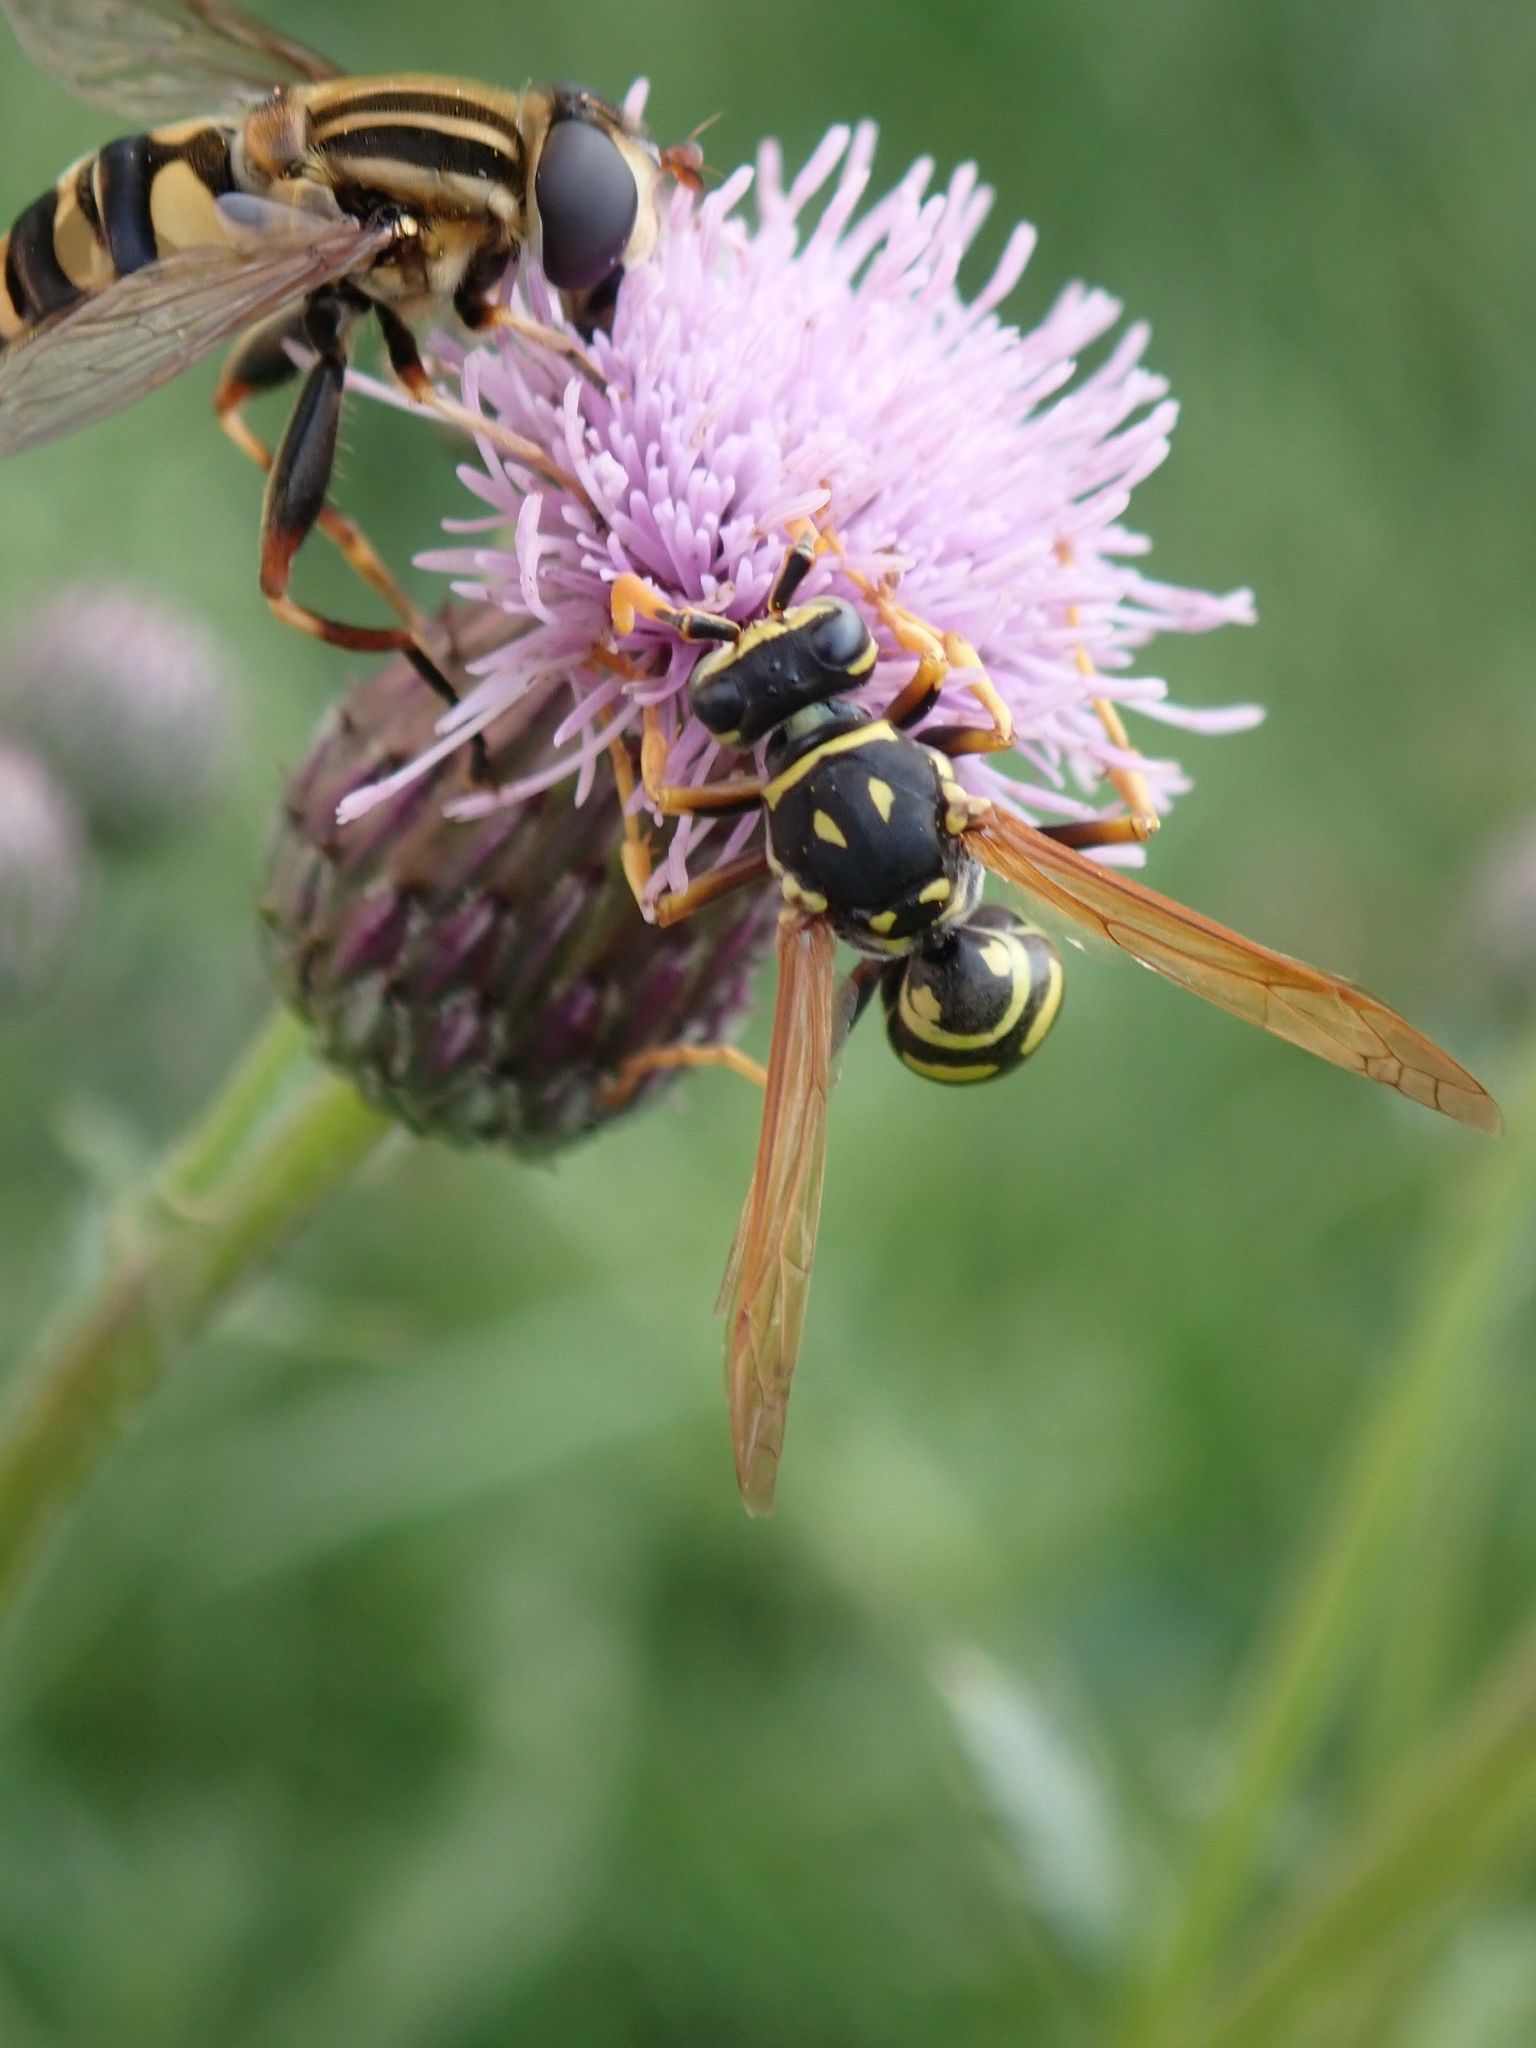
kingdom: Animalia
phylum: Arthropoda
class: Insecta
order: Hymenoptera
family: Eumenidae
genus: Polistes
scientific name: Polistes dominula
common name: Paper wasp
